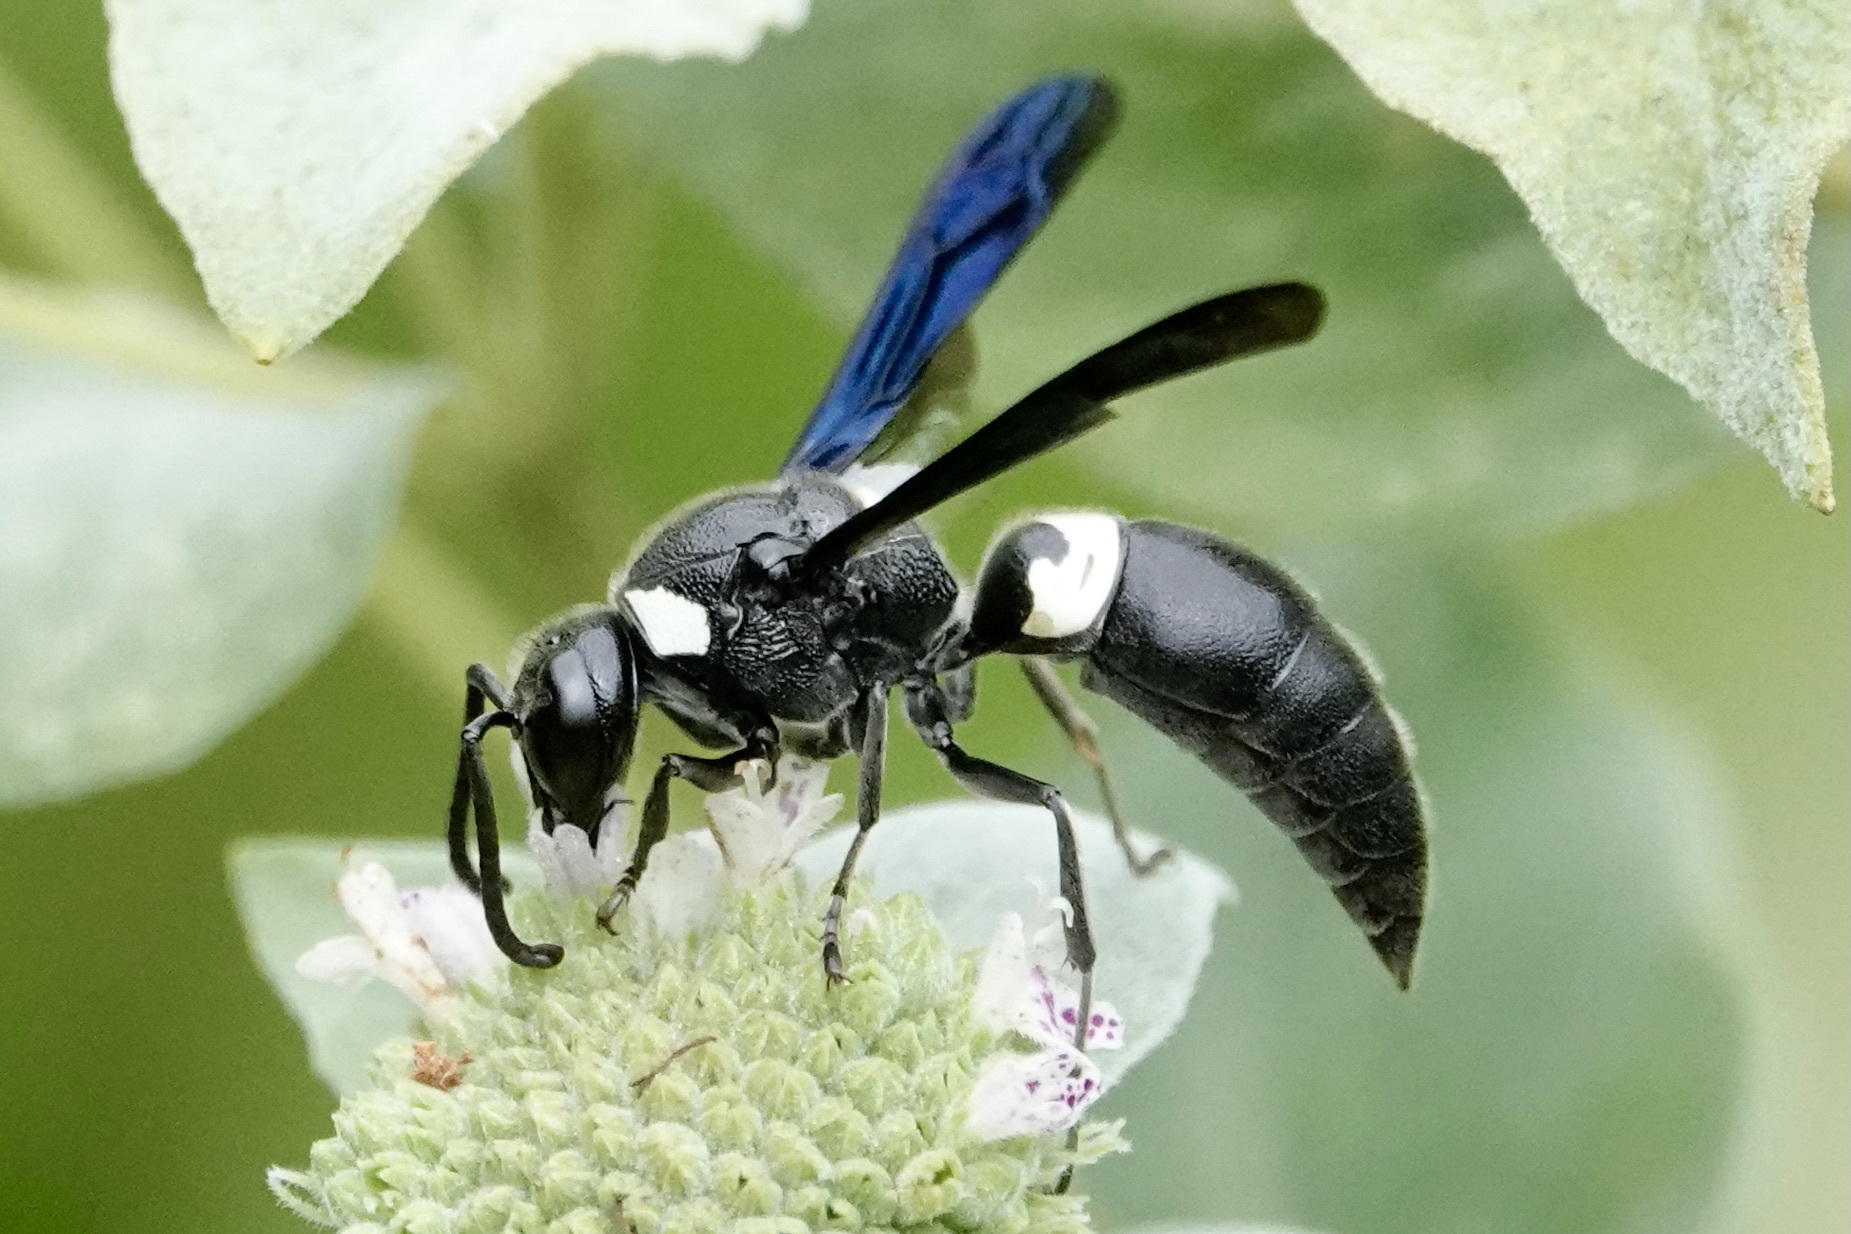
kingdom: Animalia
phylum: Arthropoda
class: Insecta
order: Hymenoptera
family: Eumenidae
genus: Monobia
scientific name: Monobia quadridens
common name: Four-toothed mason wasp
